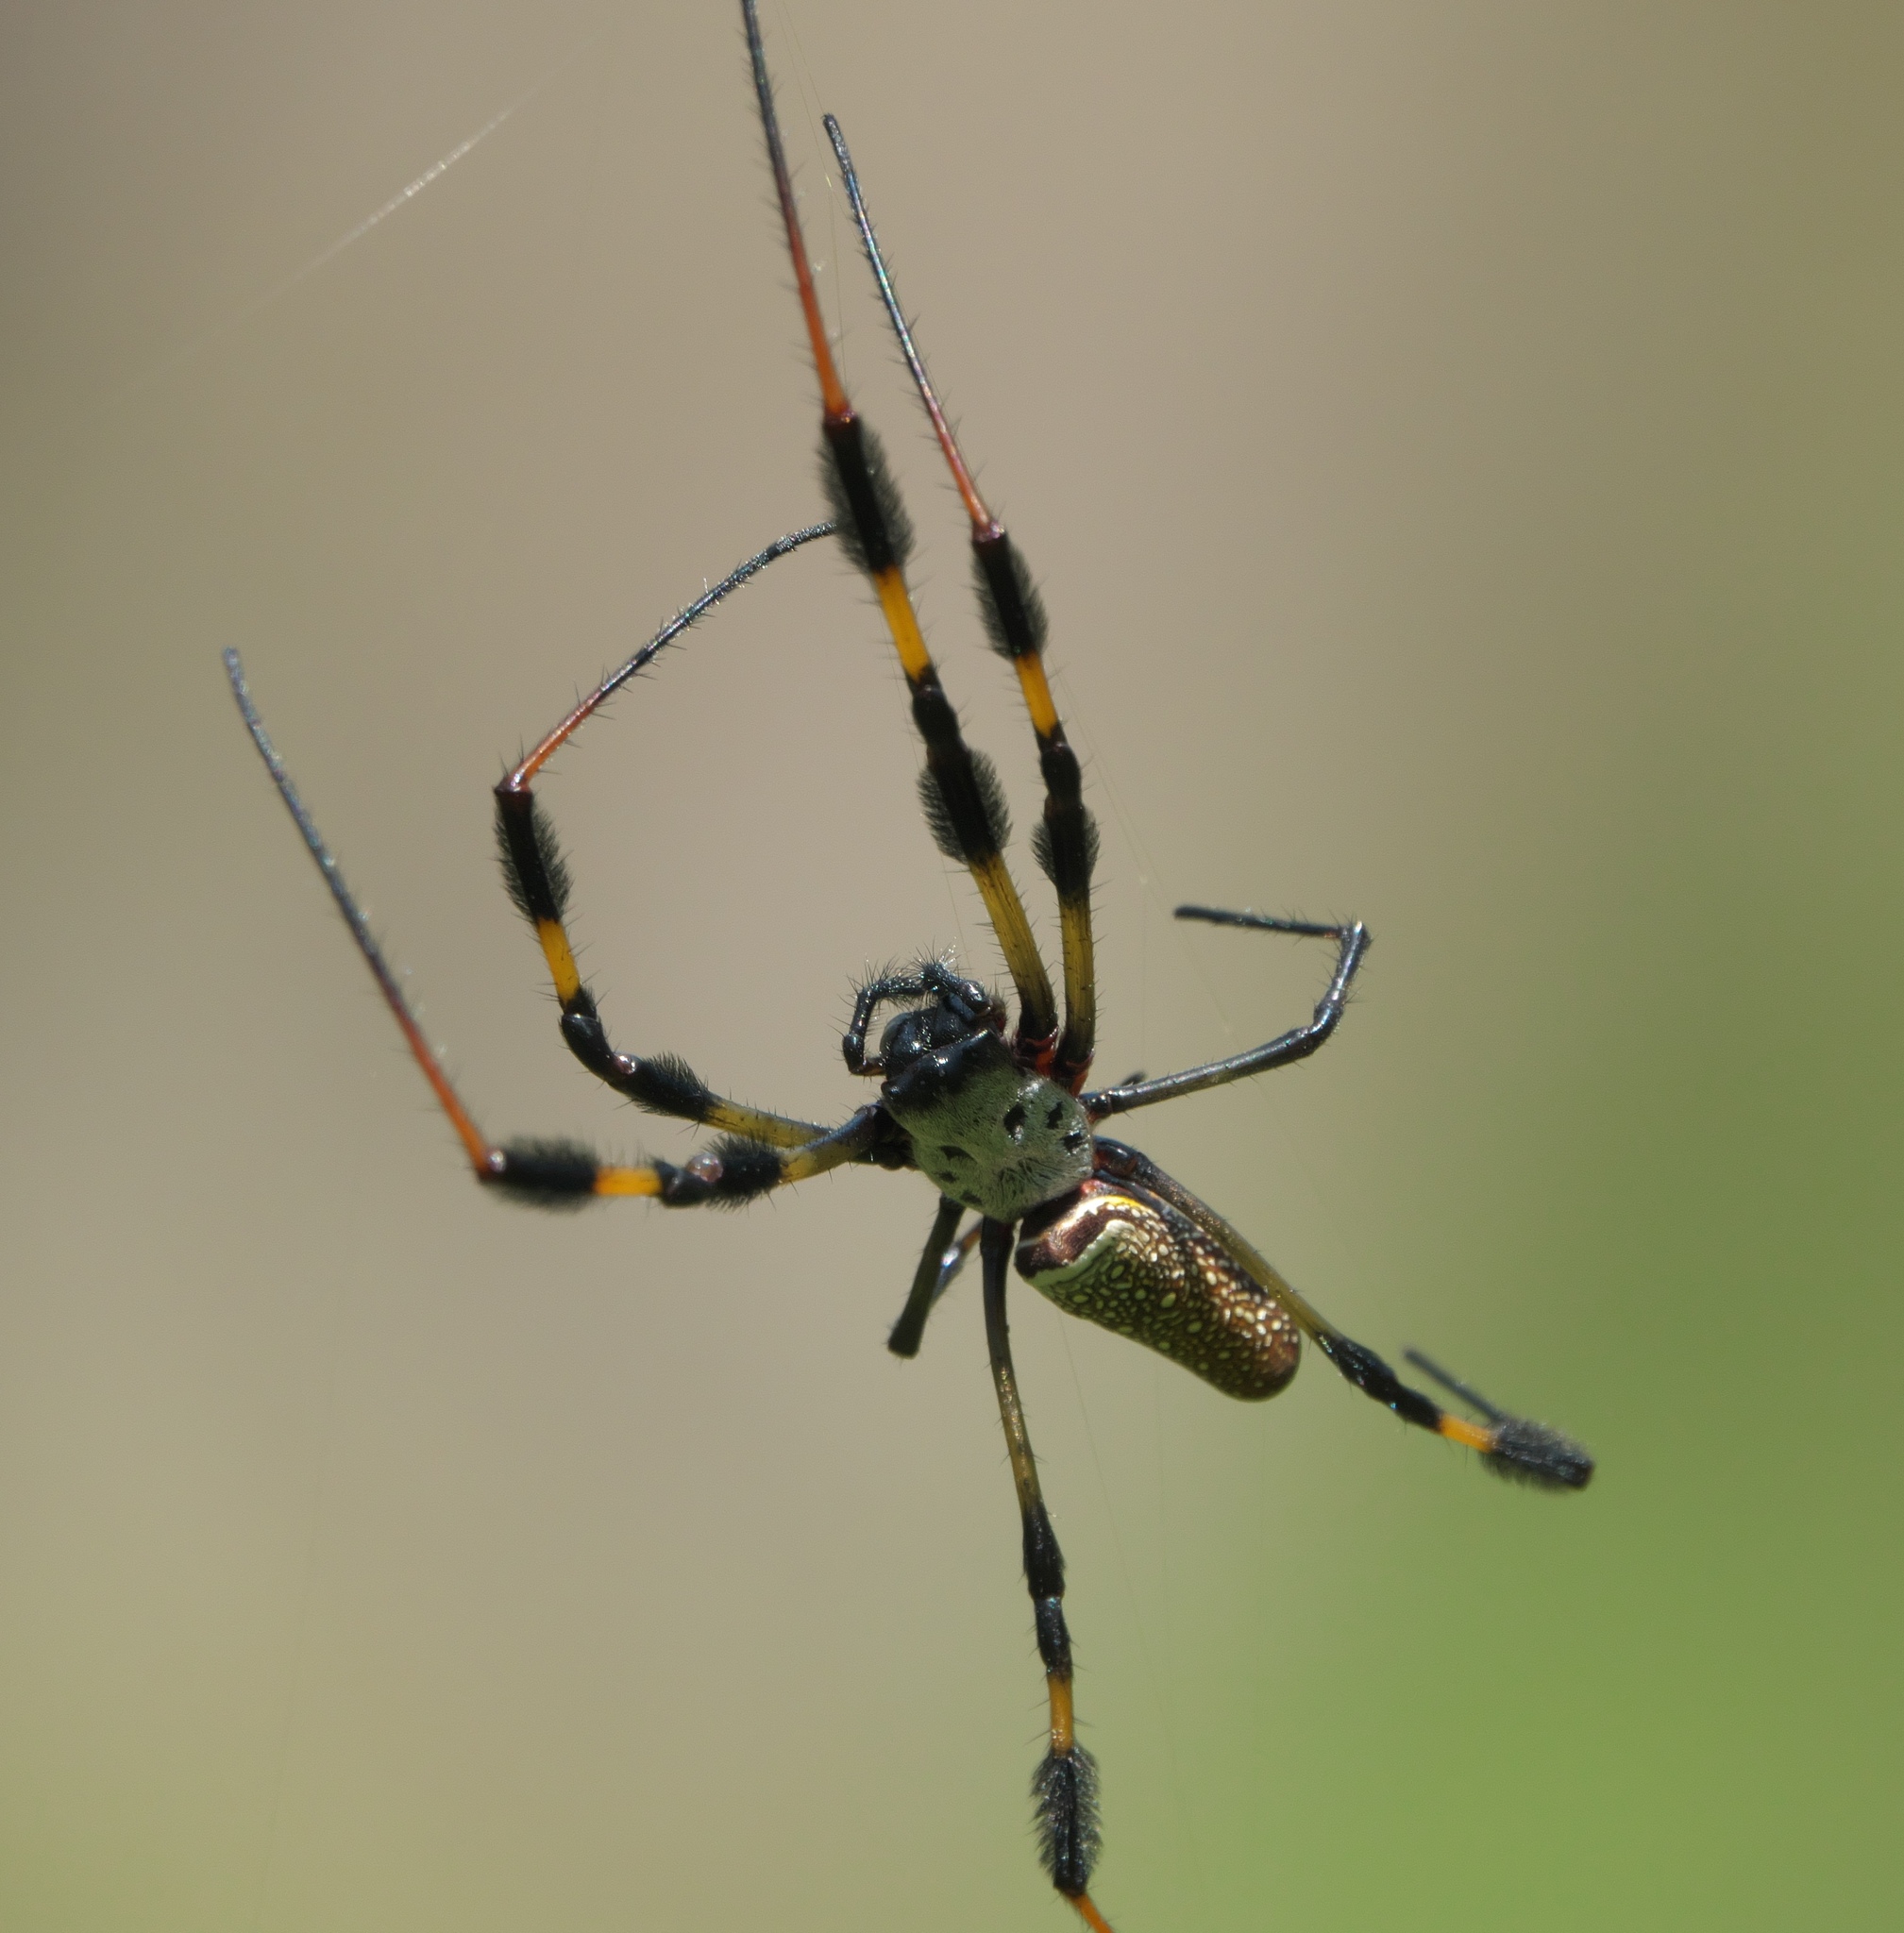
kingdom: Animalia
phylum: Arthropoda
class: Arachnida
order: Araneae
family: Araneidae
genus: Trichonephila
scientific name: Trichonephila clavipes
